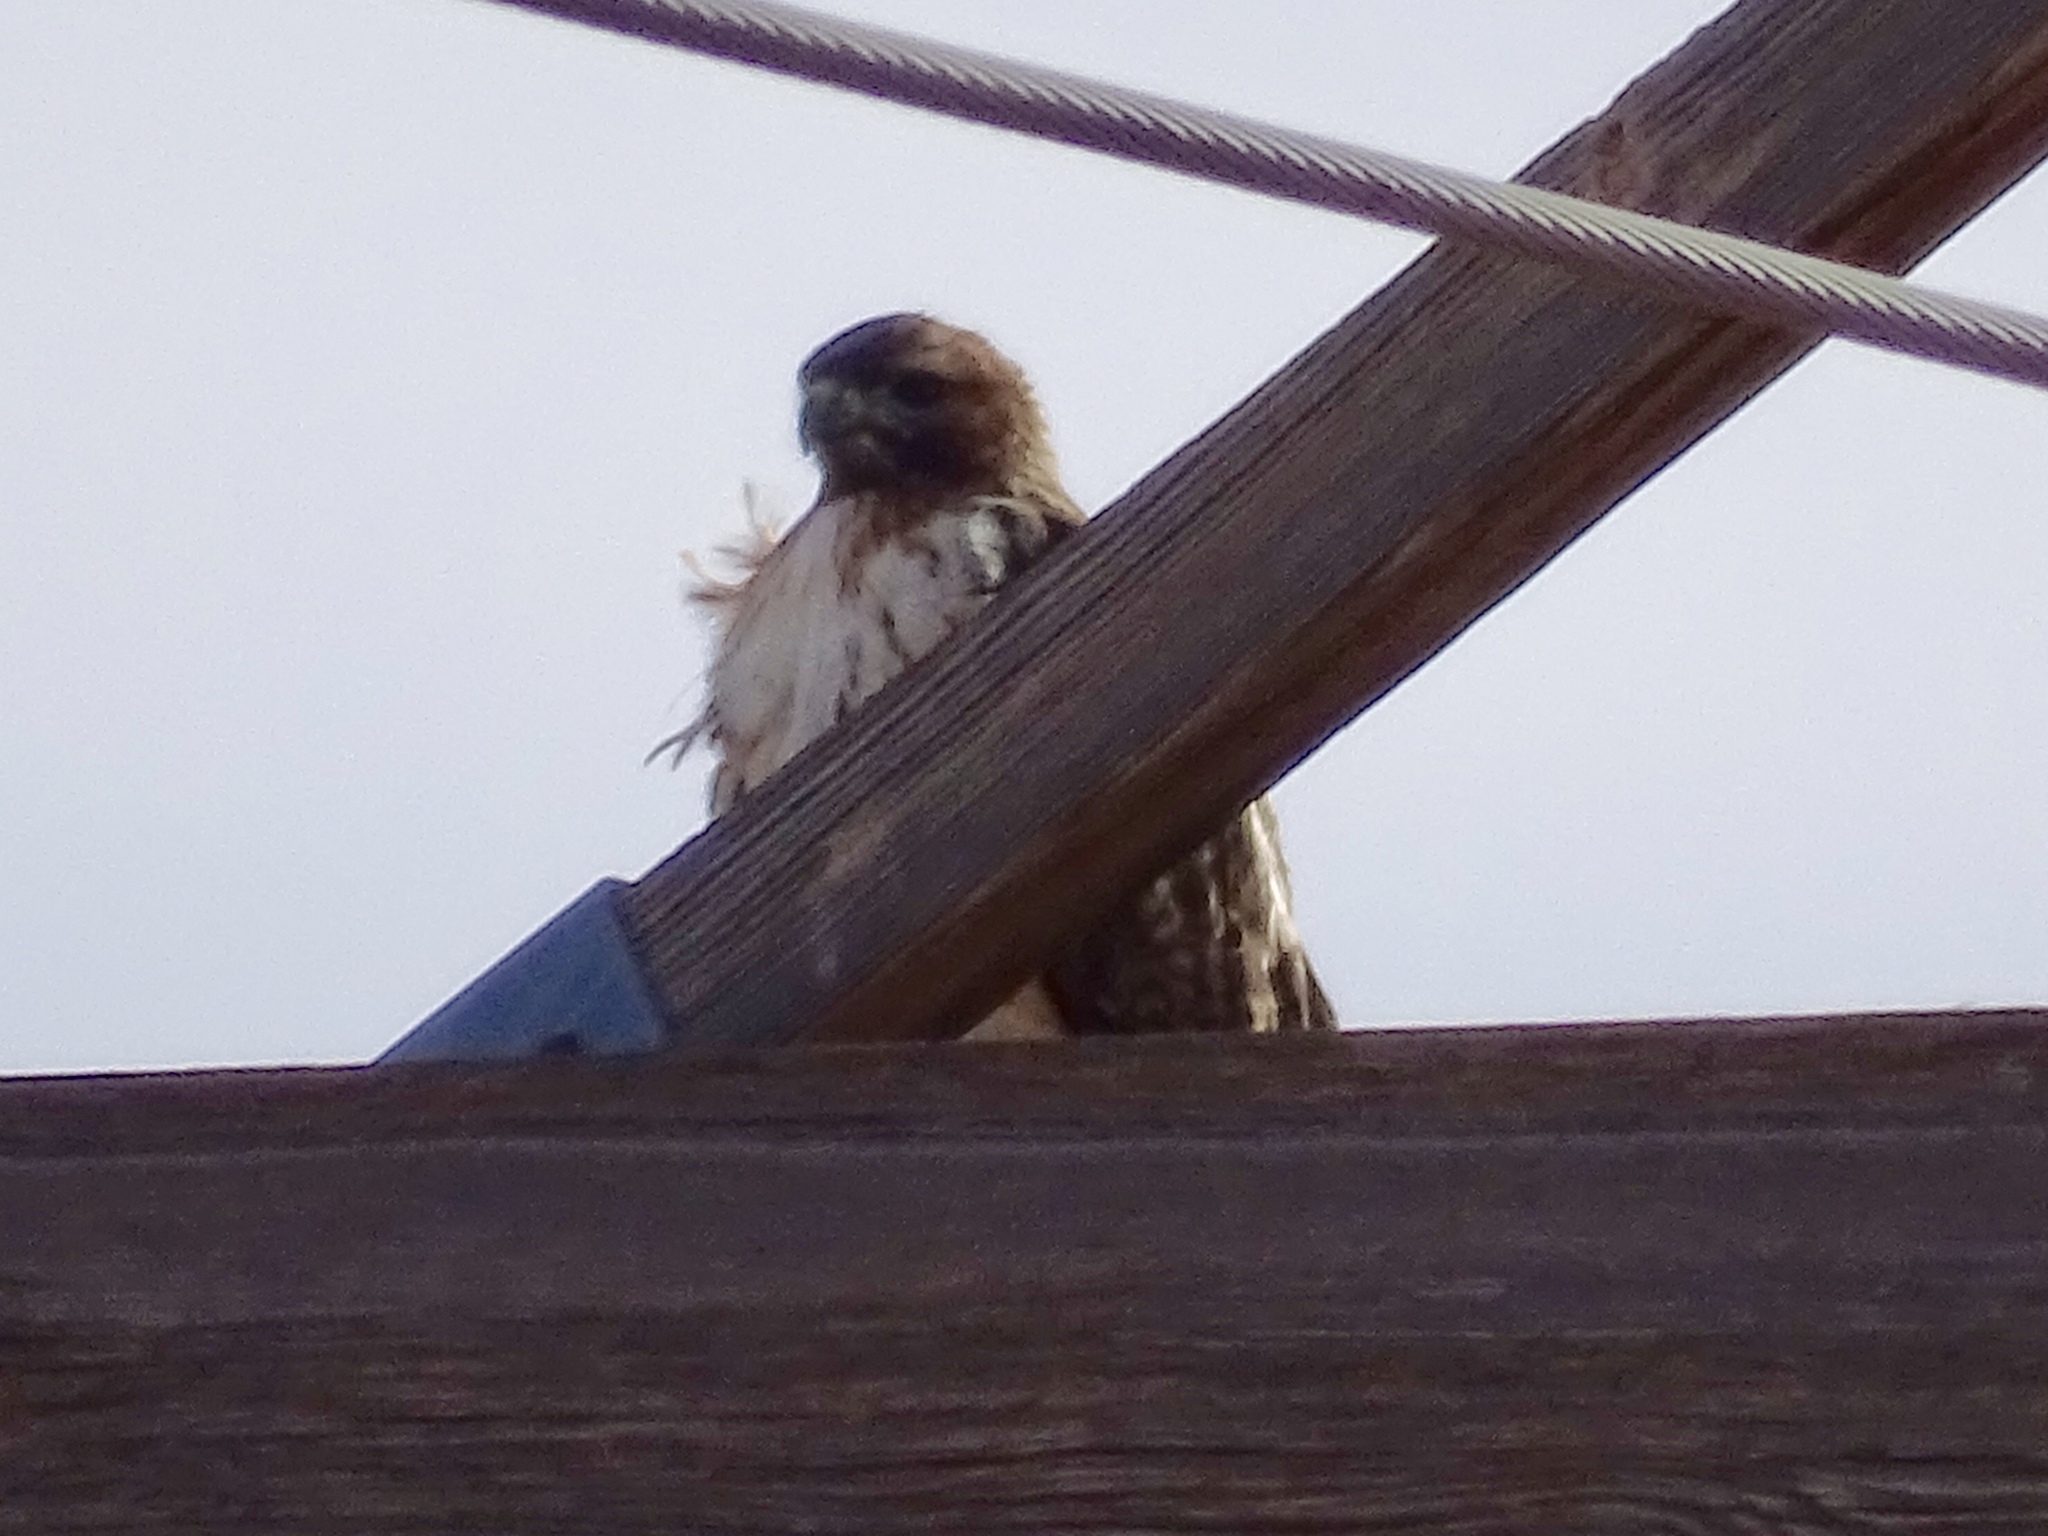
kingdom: Animalia
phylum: Chordata
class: Aves
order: Accipitriformes
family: Accipitridae
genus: Buteo
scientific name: Buteo jamaicensis
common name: Red-tailed hawk
